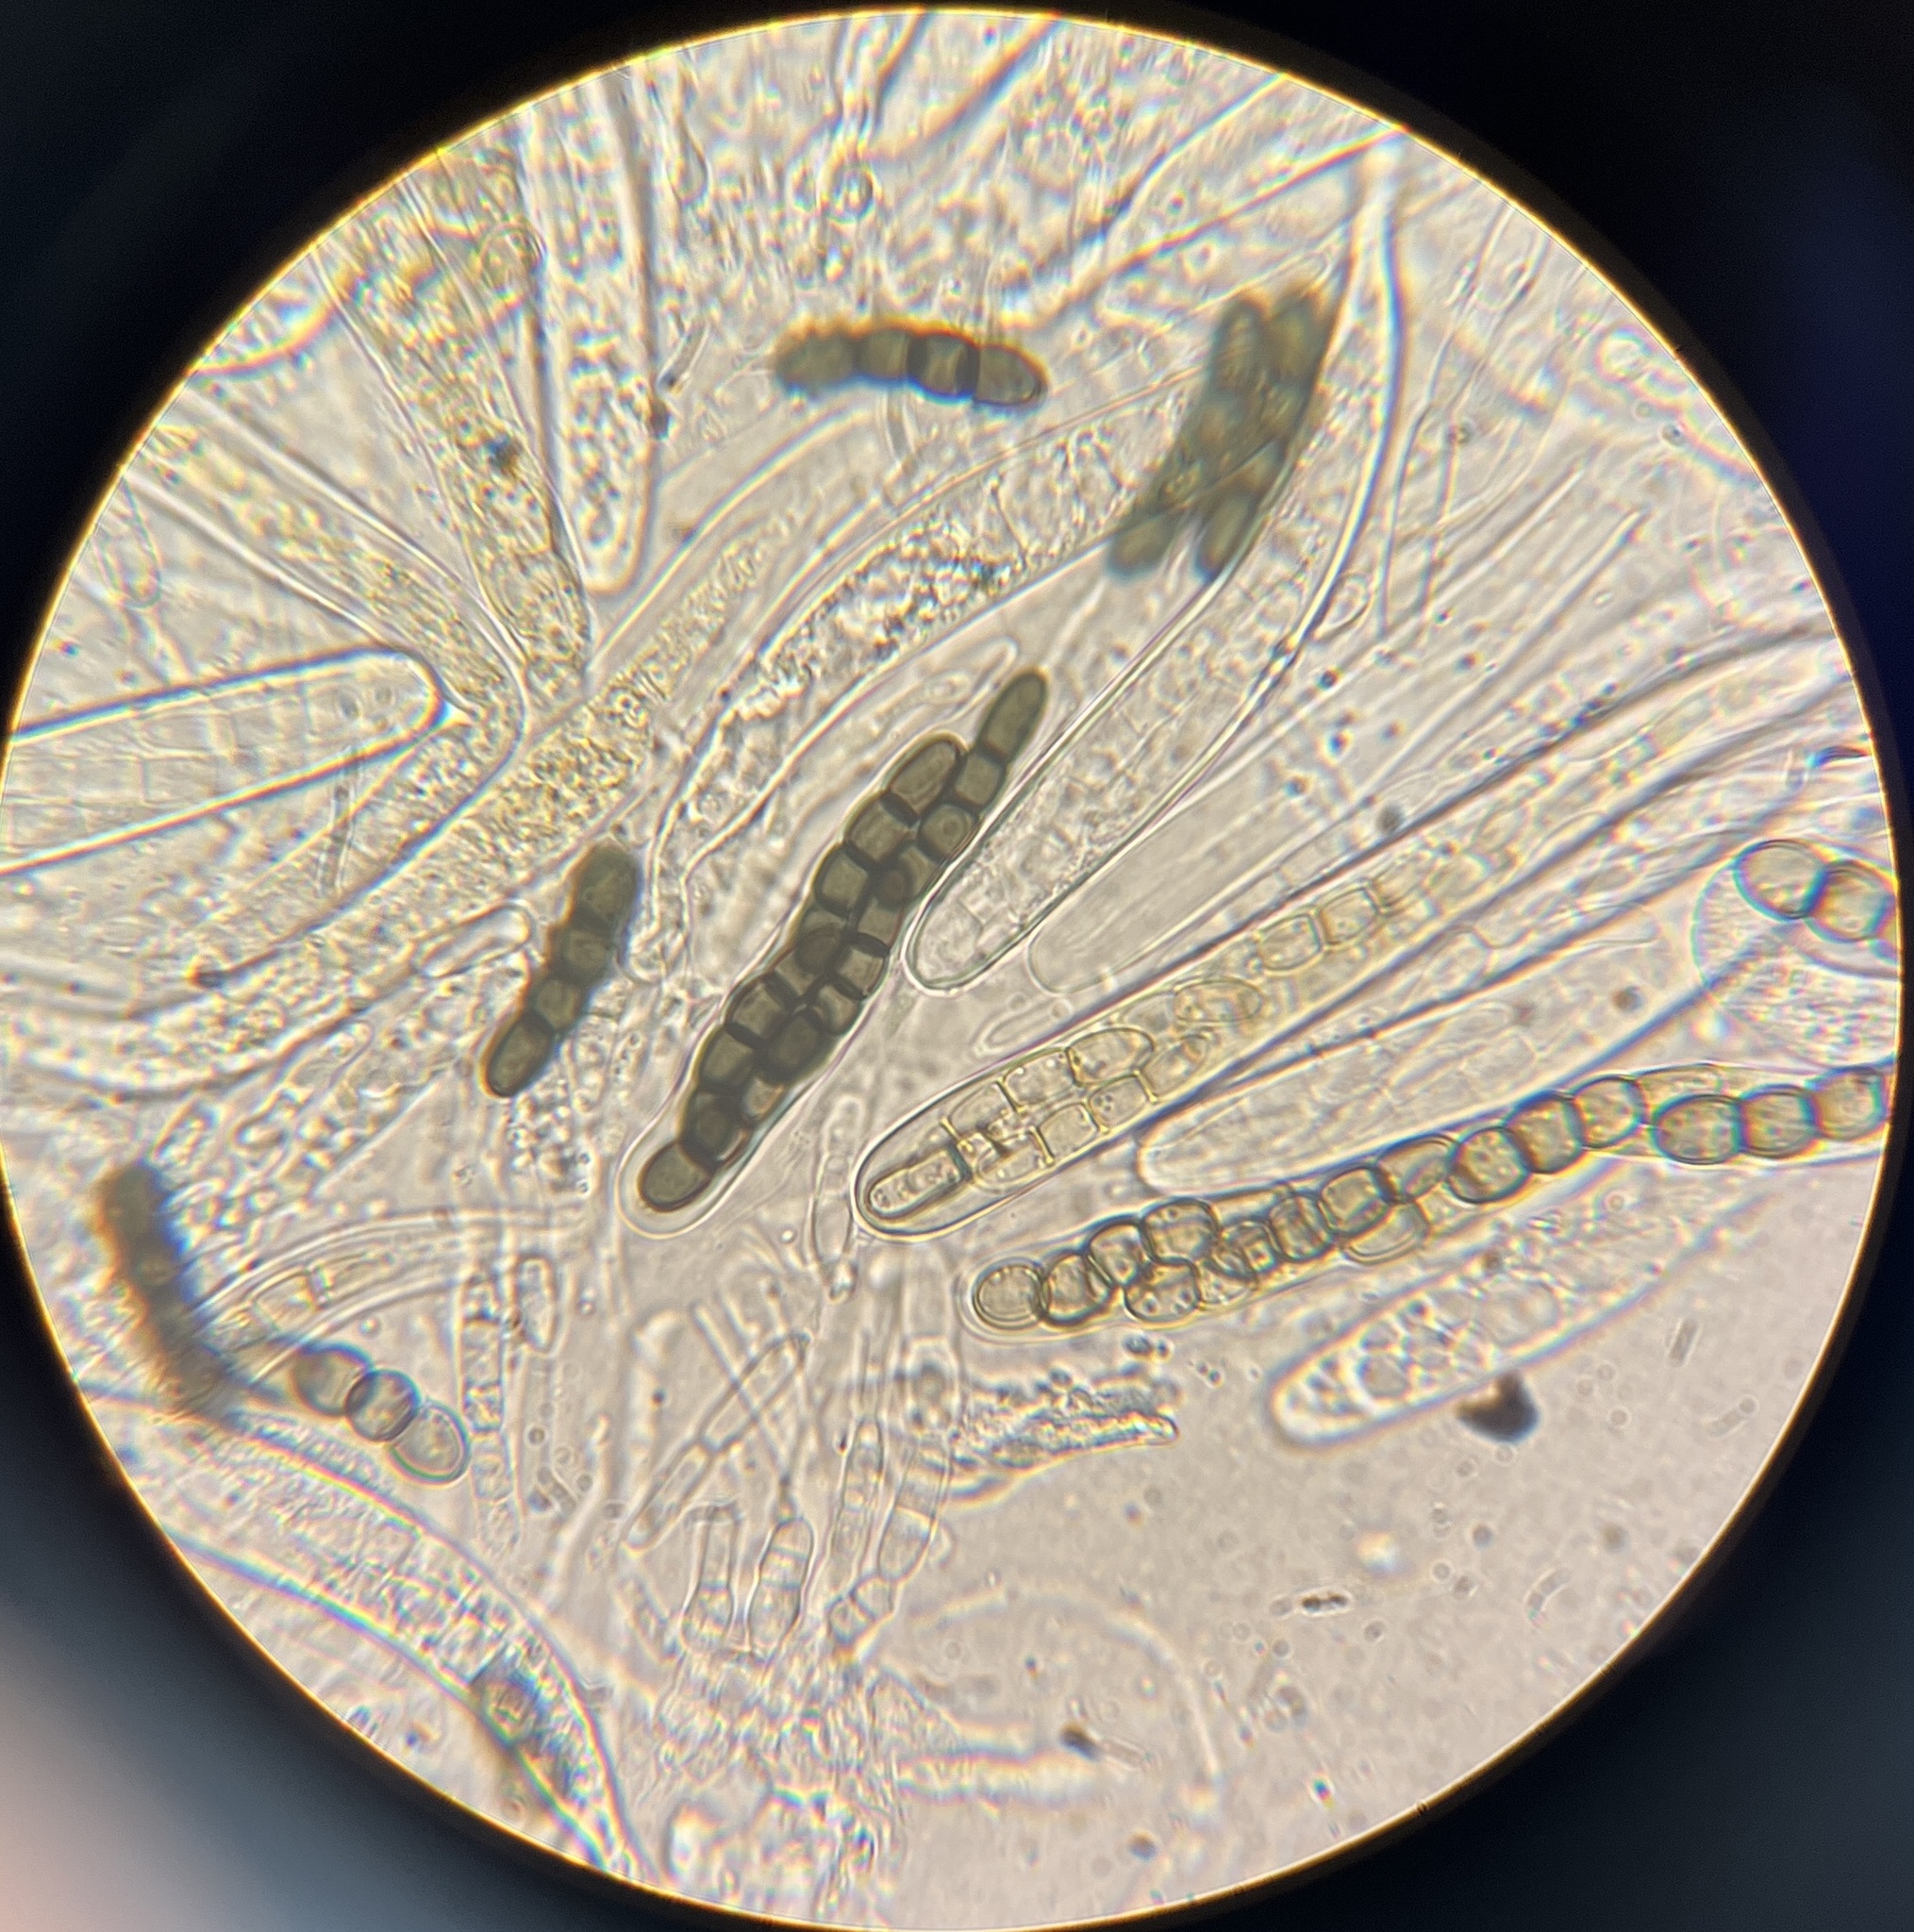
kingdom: Fungi
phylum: Ascomycota
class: Dothideomycetes
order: Pleosporales
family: Sporormiaceae
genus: Sporormiella
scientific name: Sporormiella subtilis
